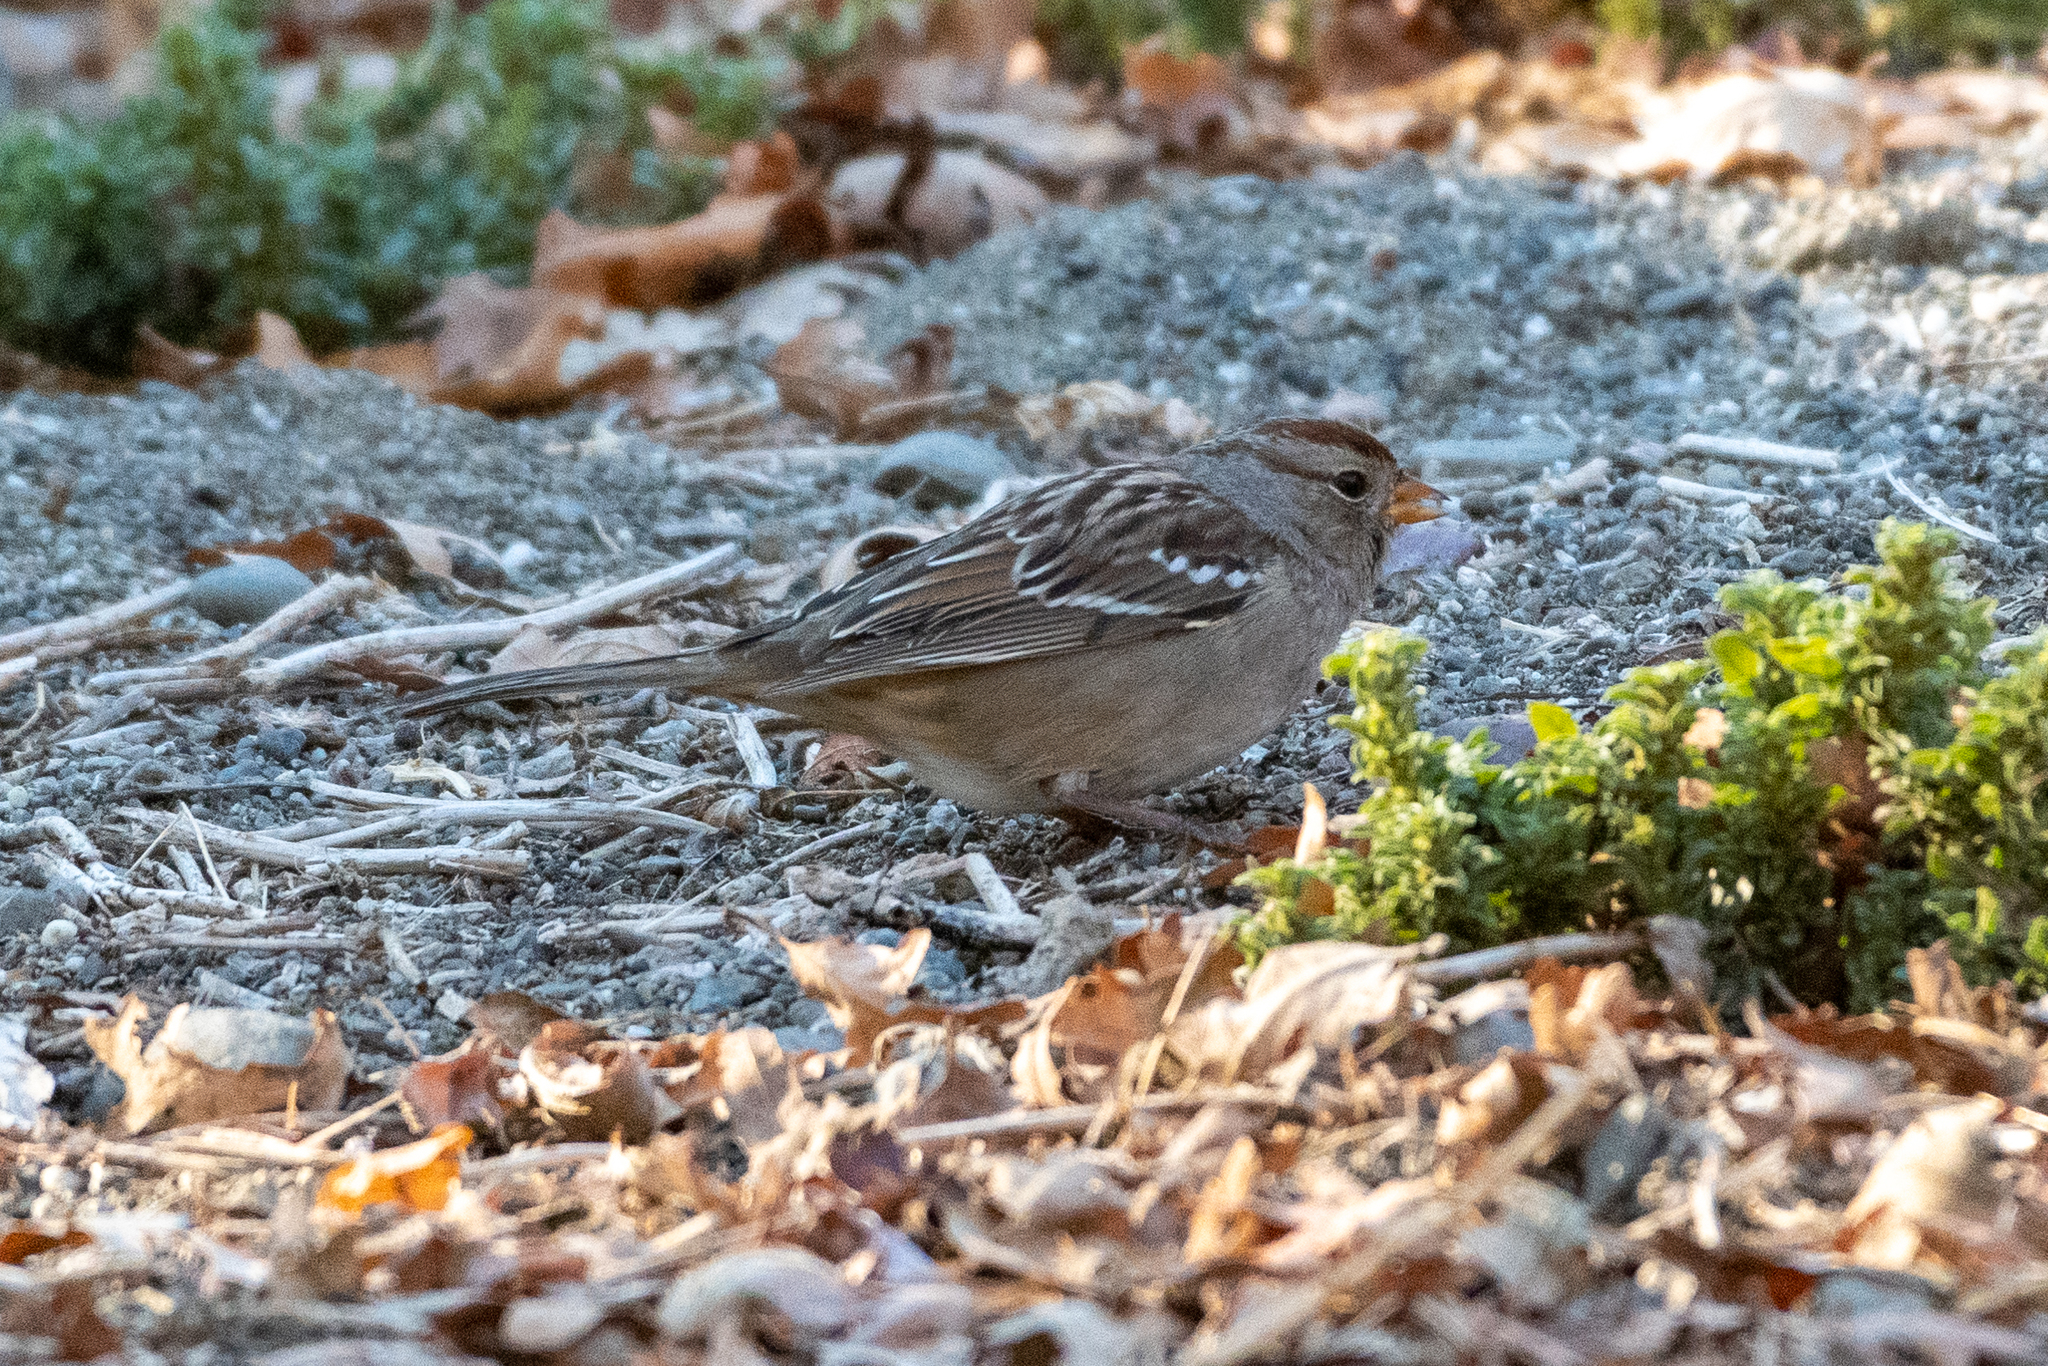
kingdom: Animalia
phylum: Chordata
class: Aves
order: Passeriformes
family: Passerellidae
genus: Zonotrichia
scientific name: Zonotrichia leucophrys
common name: White-crowned sparrow
